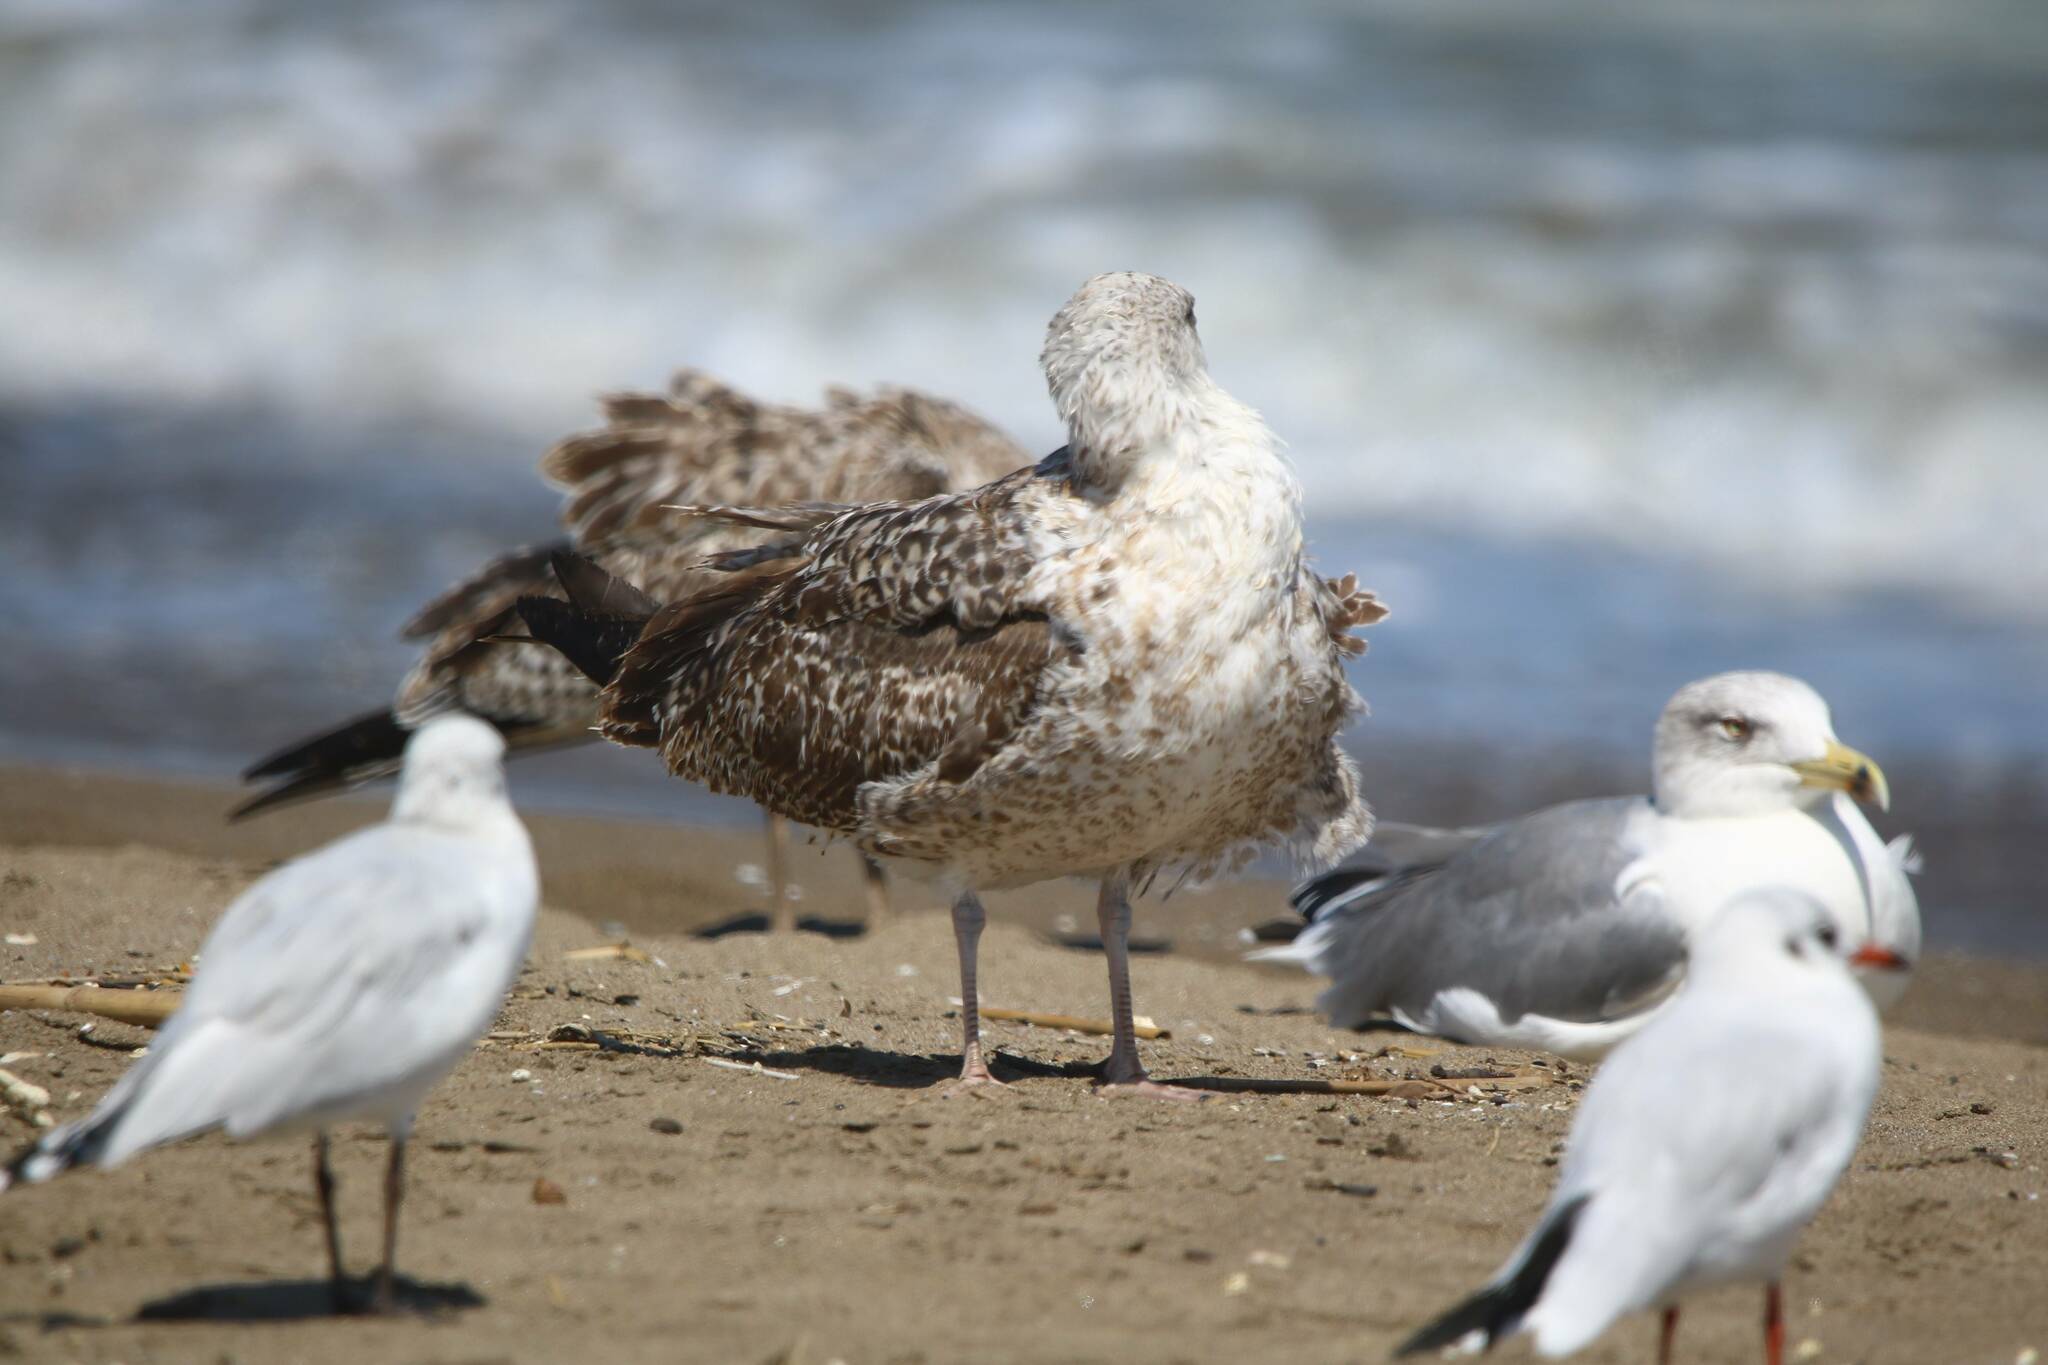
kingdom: Animalia
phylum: Chordata
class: Aves
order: Charadriiformes
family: Laridae
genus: Larus
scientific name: Larus michahellis
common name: Yellow-legged gull
